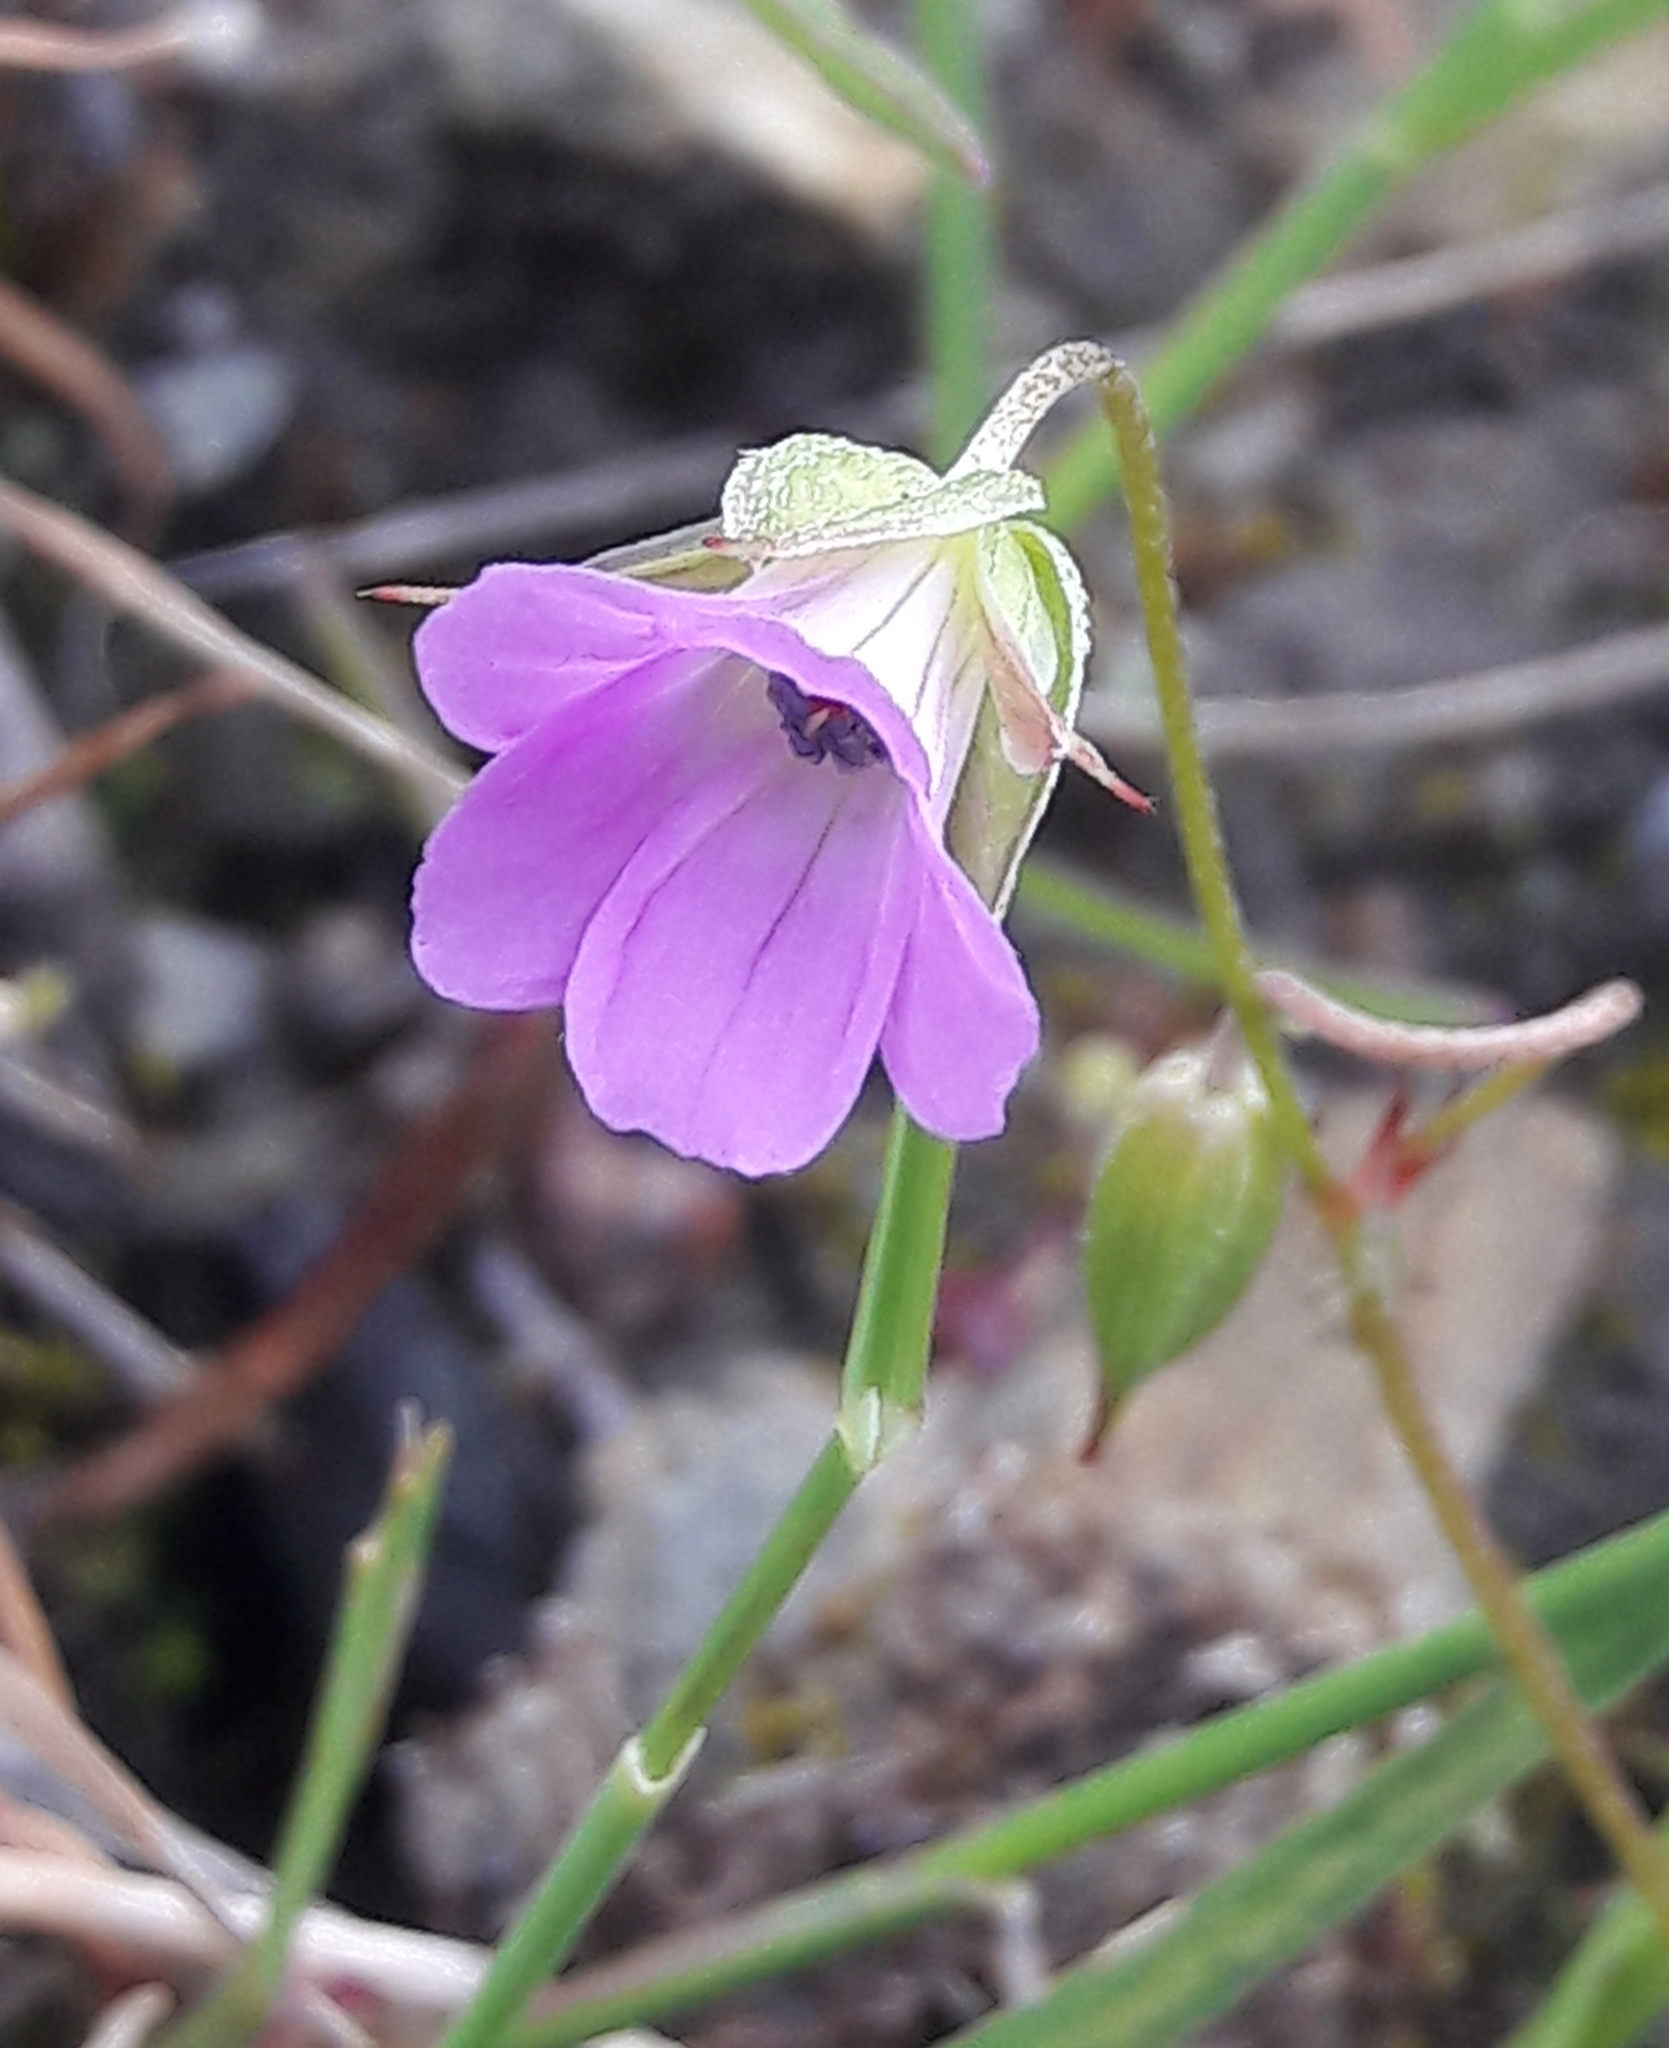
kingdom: Plantae
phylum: Tracheophyta
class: Magnoliopsida
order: Geraniales
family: Geraniaceae
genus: Geranium
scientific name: Geranium columbinum
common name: Long-stalked crane's-bill
